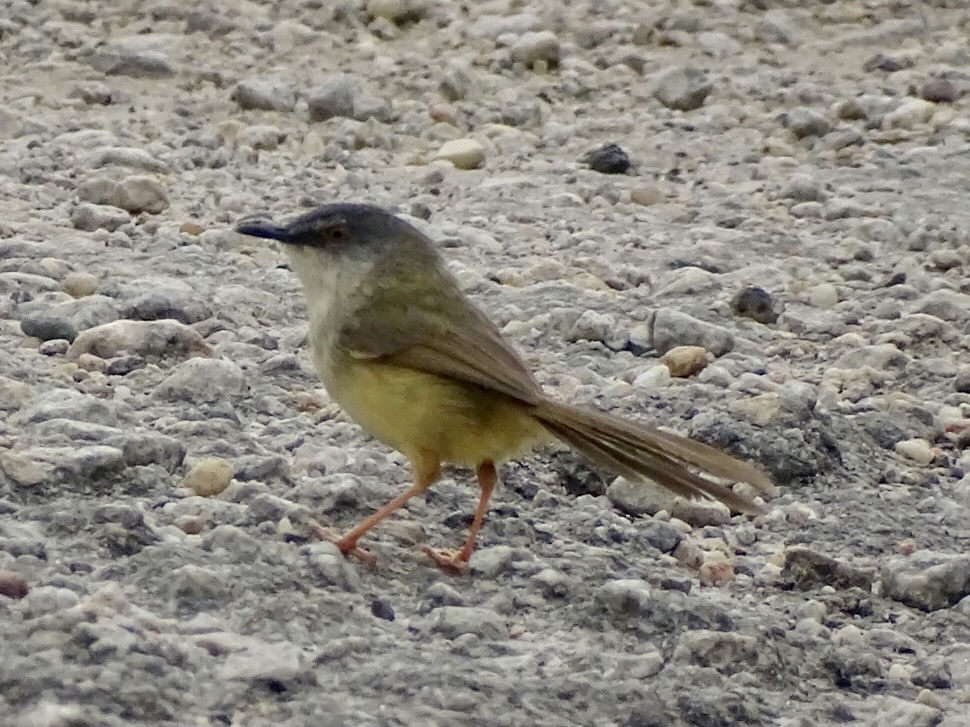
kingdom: Animalia
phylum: Chordata
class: Aves
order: Passeriformes
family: Cisticolidae
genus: Prinia
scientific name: Prinia flaviventris
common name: Yellow-bellied prinia
